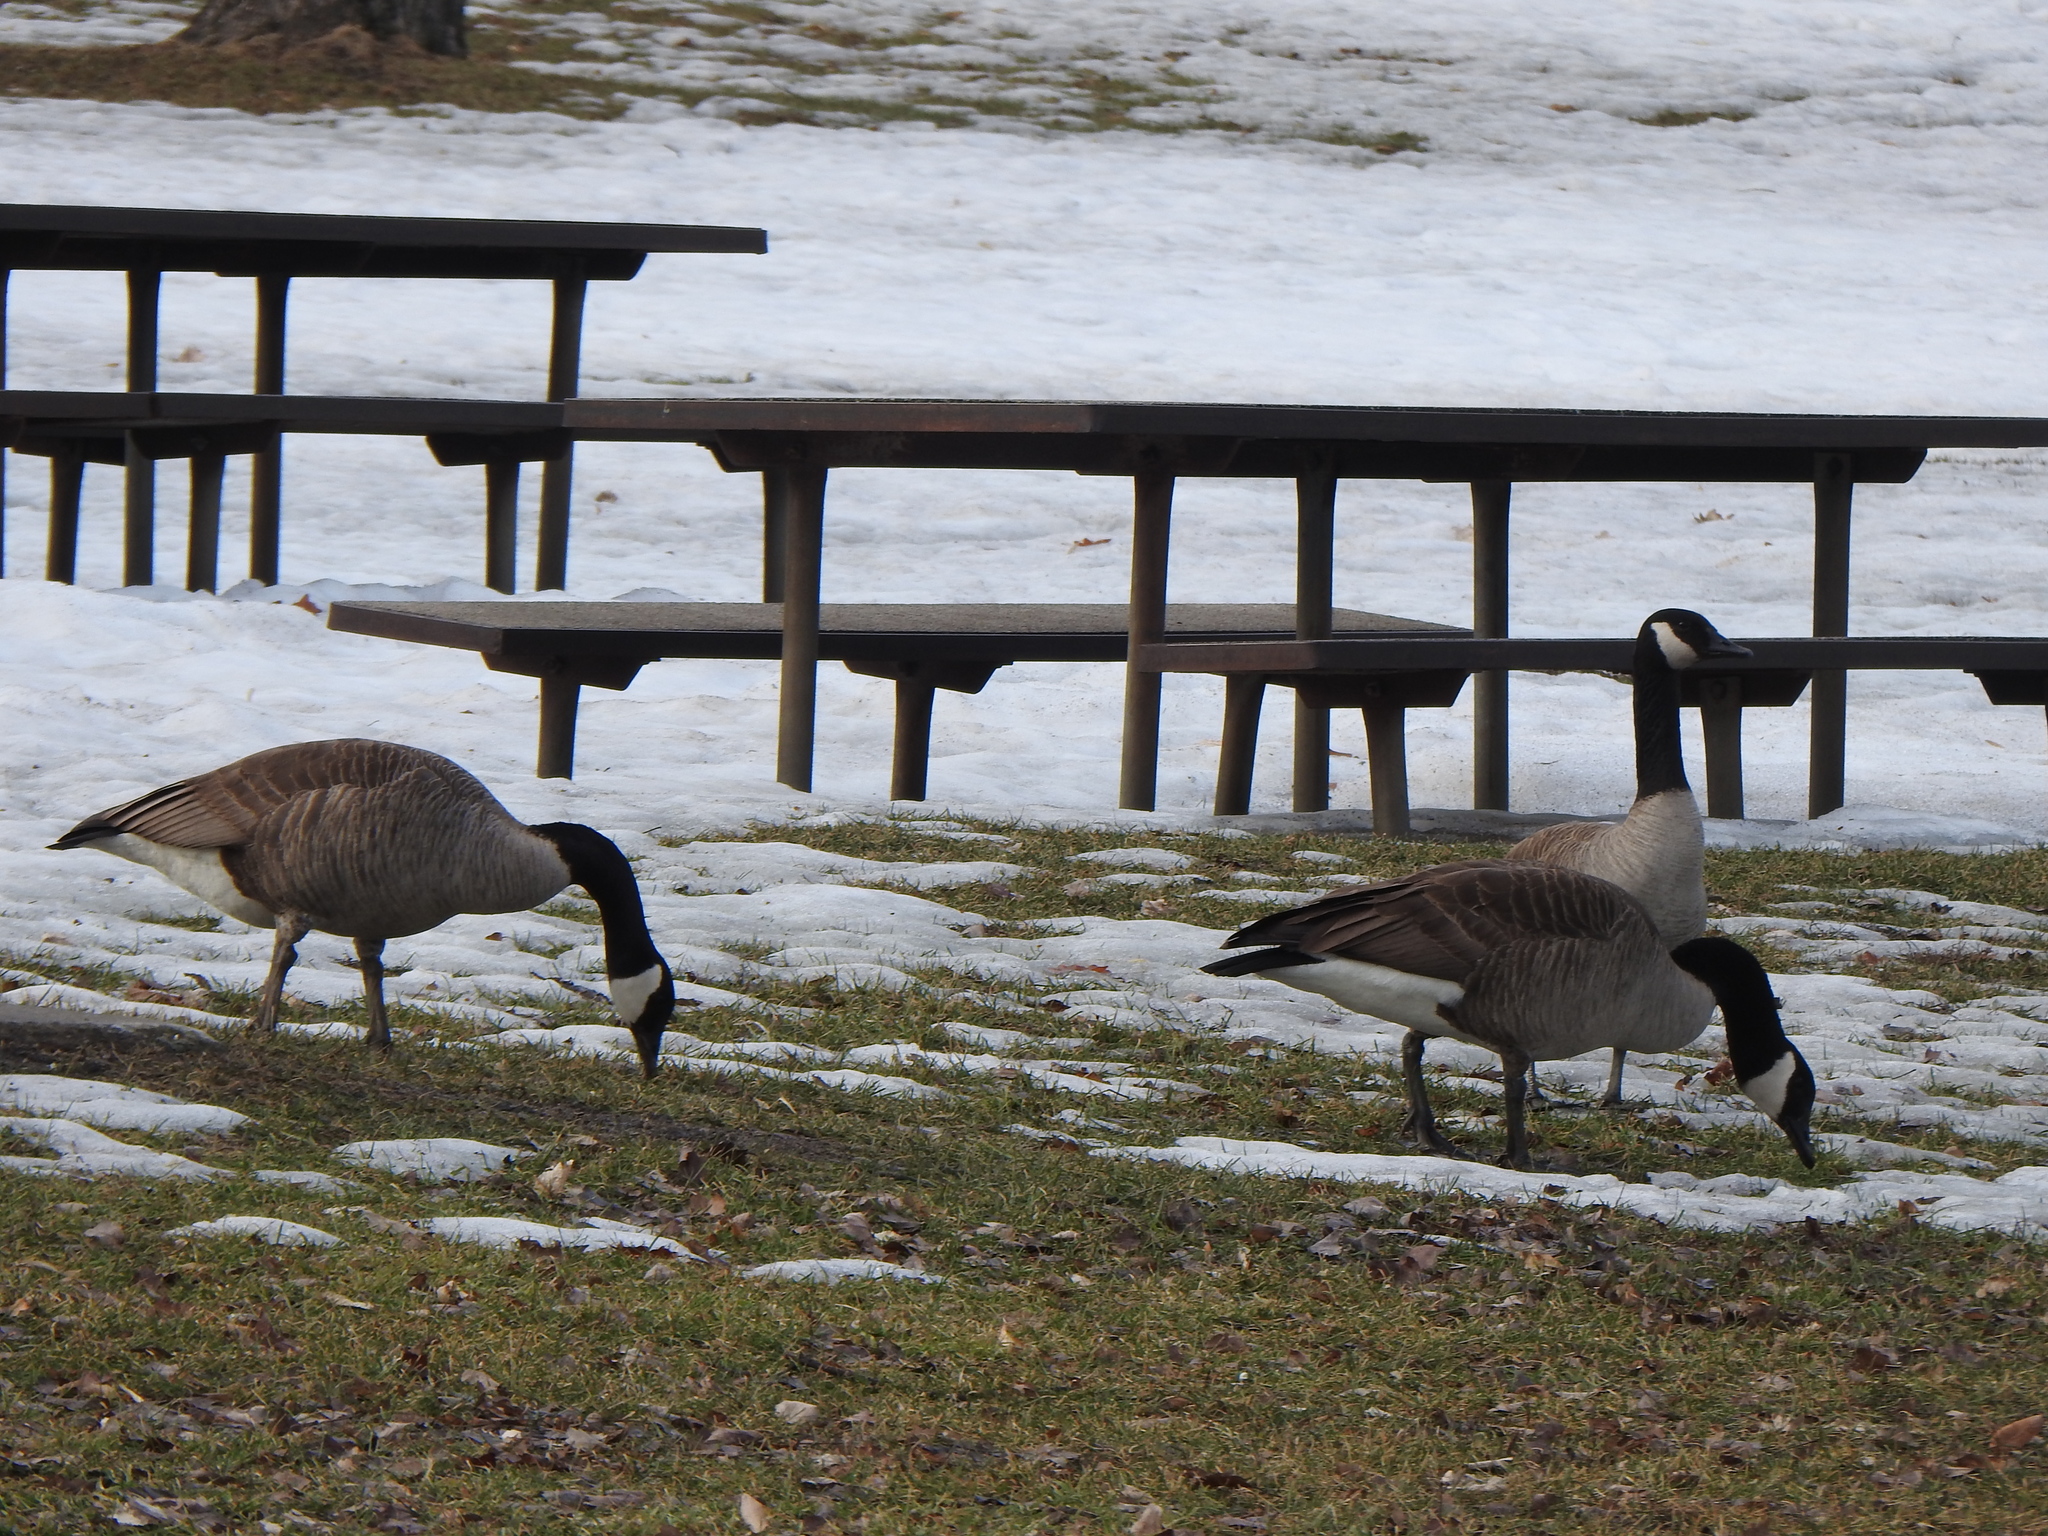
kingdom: Animalia
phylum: Chordata
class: Aves
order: Anseriformes
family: Anatidae
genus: Branta
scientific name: Branta canadensis
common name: Canada goose
